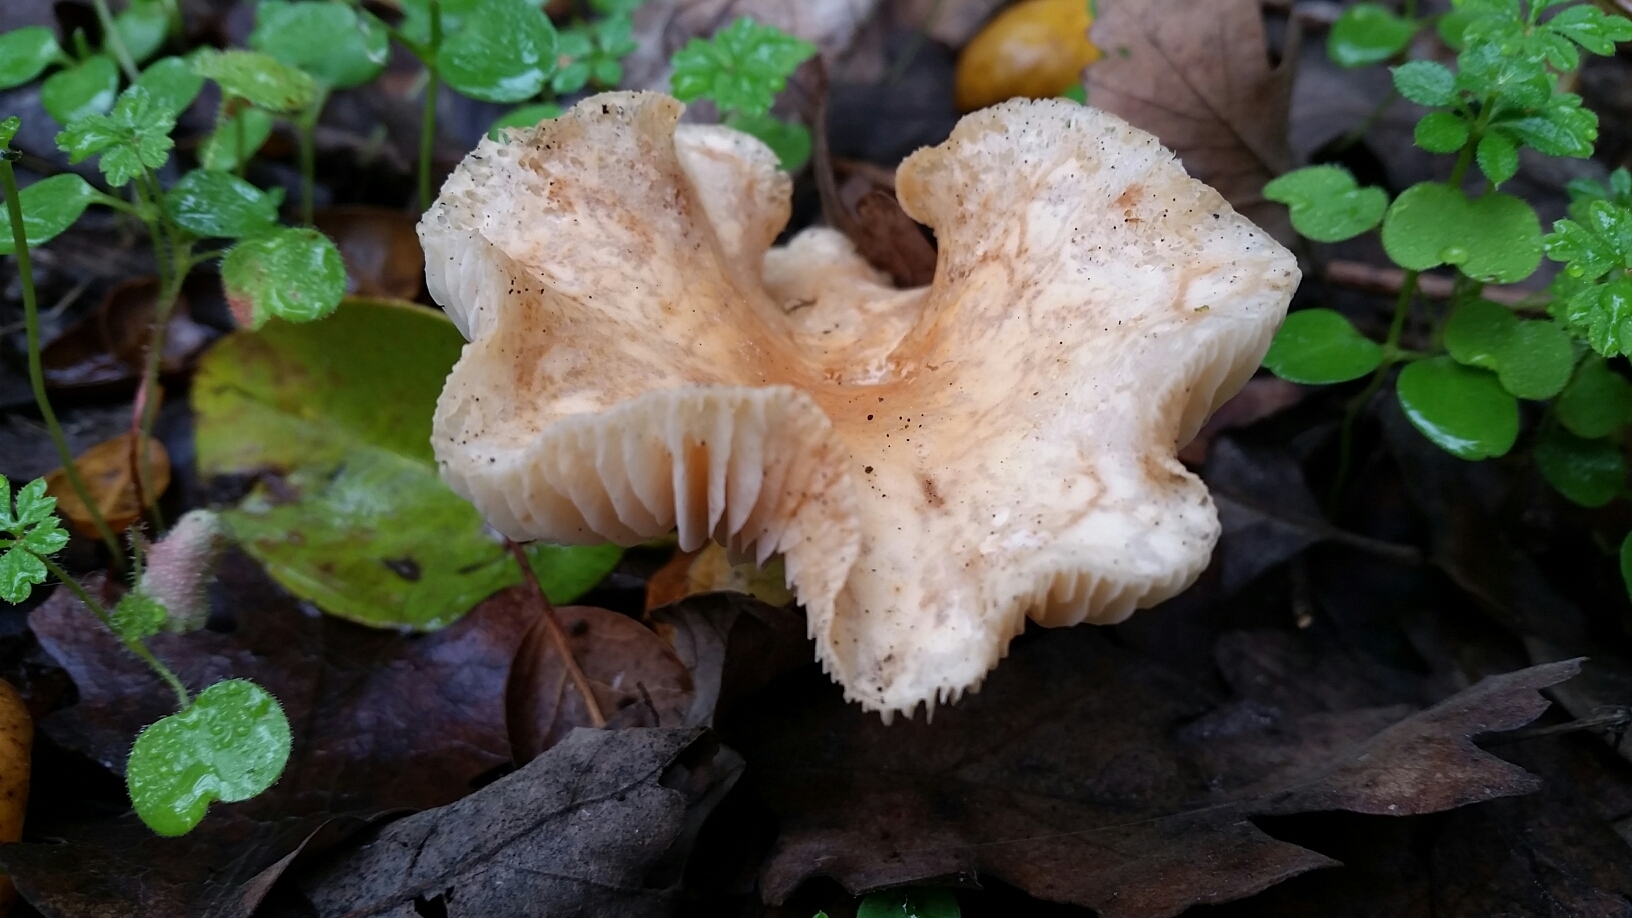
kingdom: Fungi
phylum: Basidiomycota
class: Agaricomycetes
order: Agaricales
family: Omphalotaceae
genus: Gymnopus
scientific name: Gymnopus dryophilus
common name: Penny top
